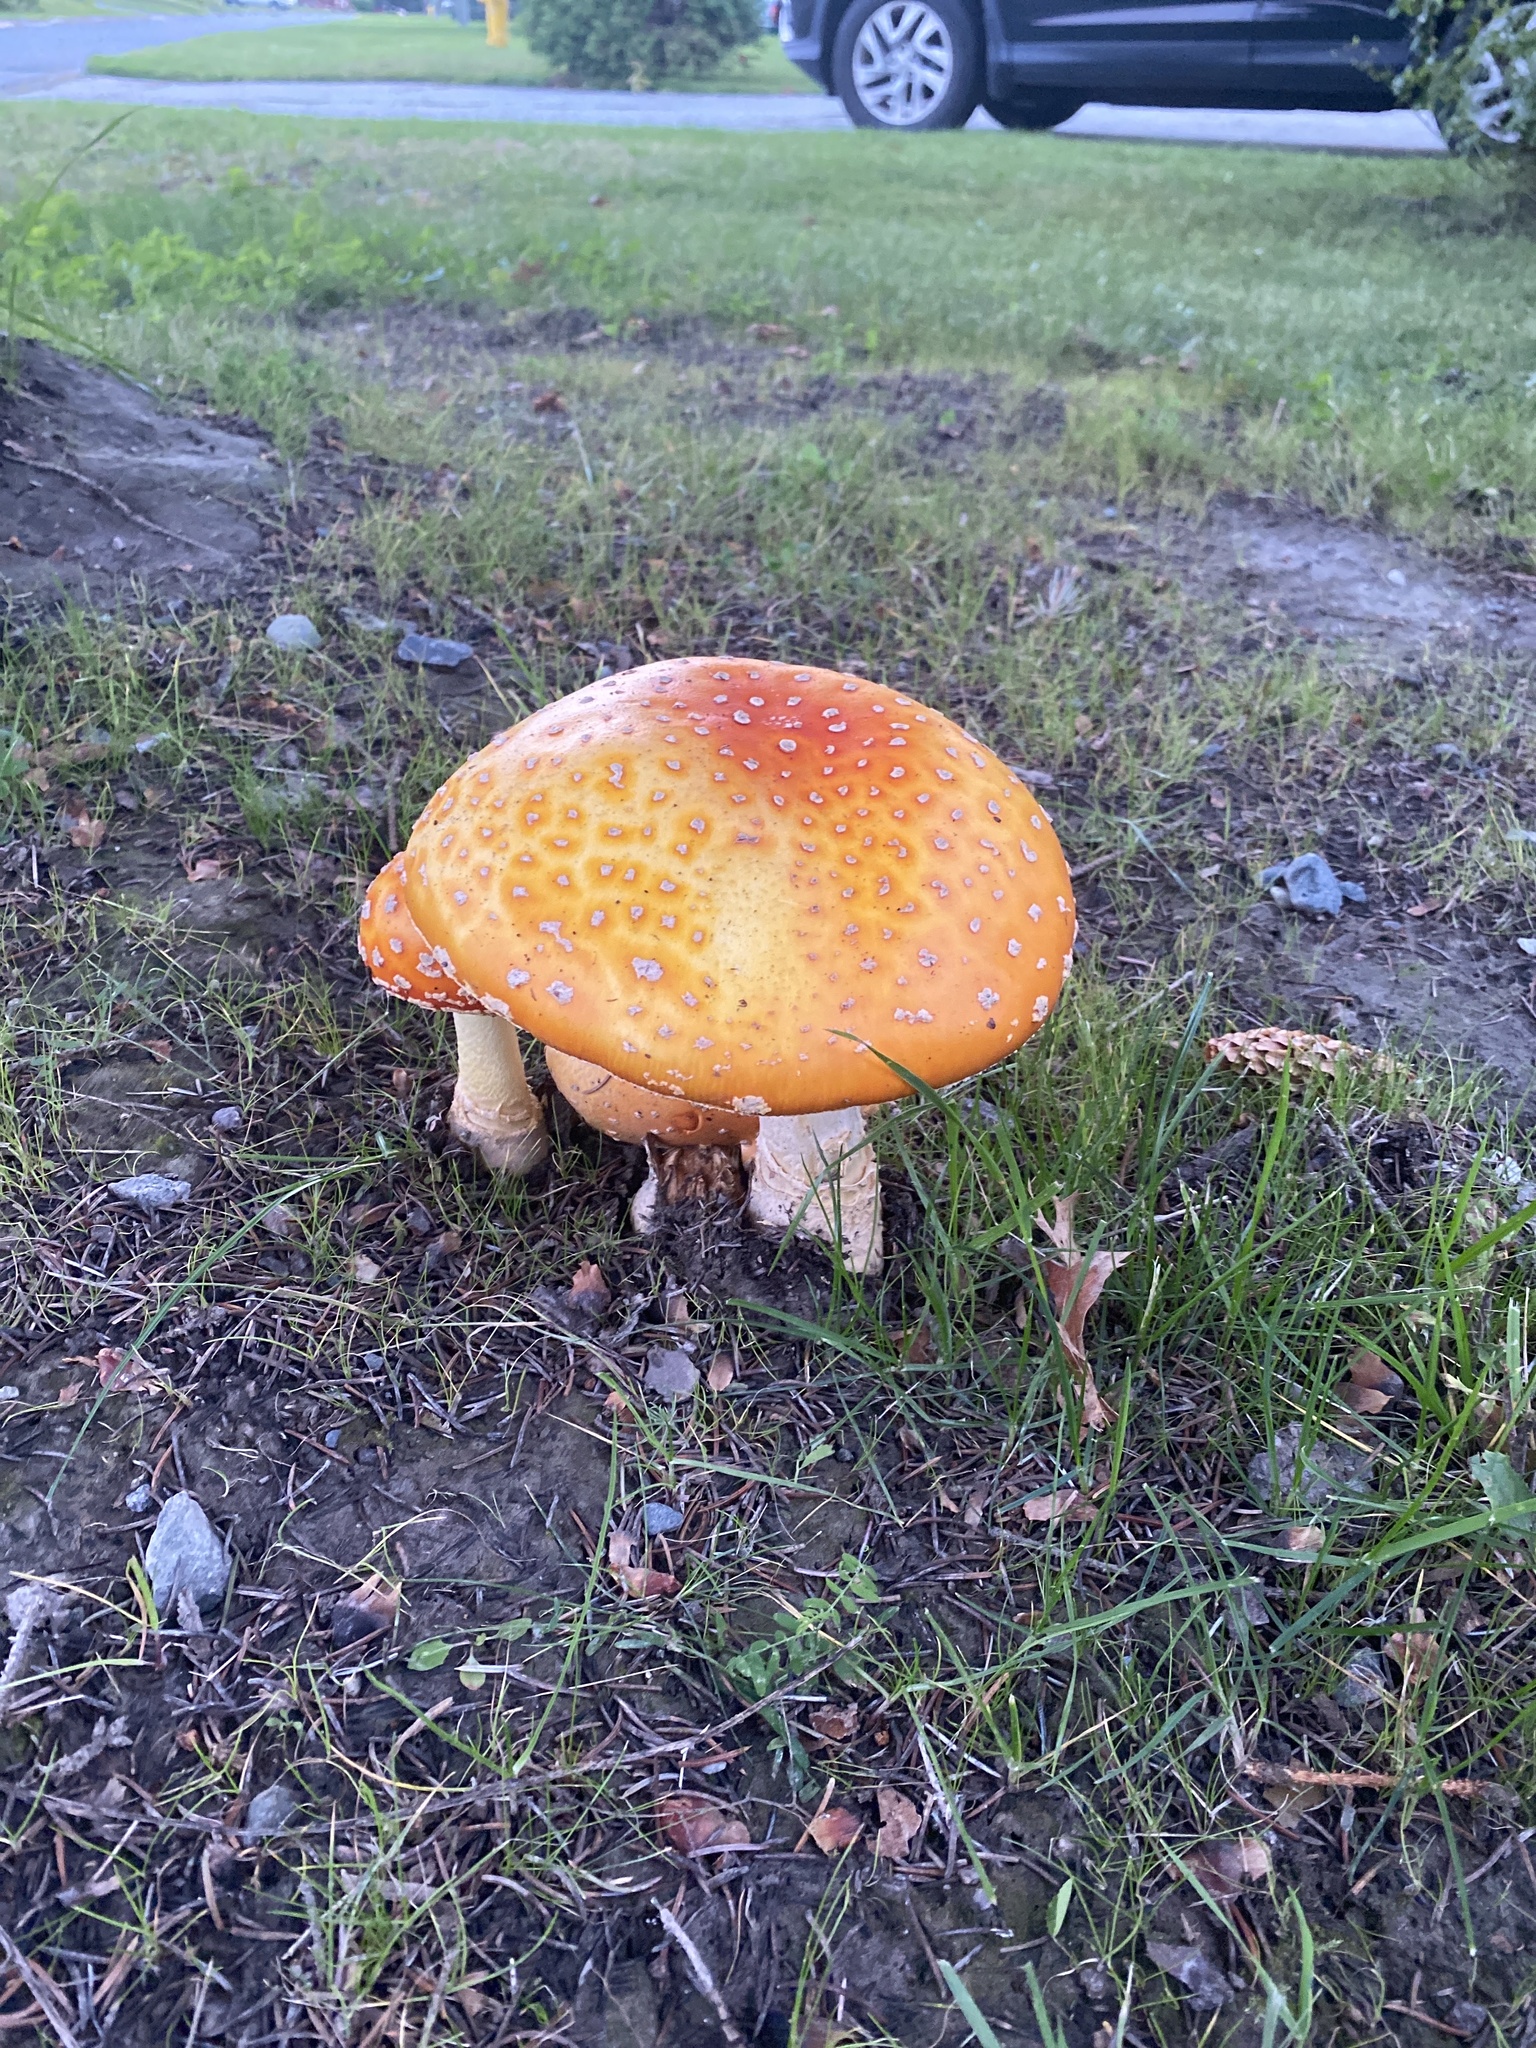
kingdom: Fungi
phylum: Basidiomycota
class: Agaricomycetes
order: Agaricales
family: Amanitaceae
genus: Amanita
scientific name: Amanita muscaria
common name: Fly agaric
